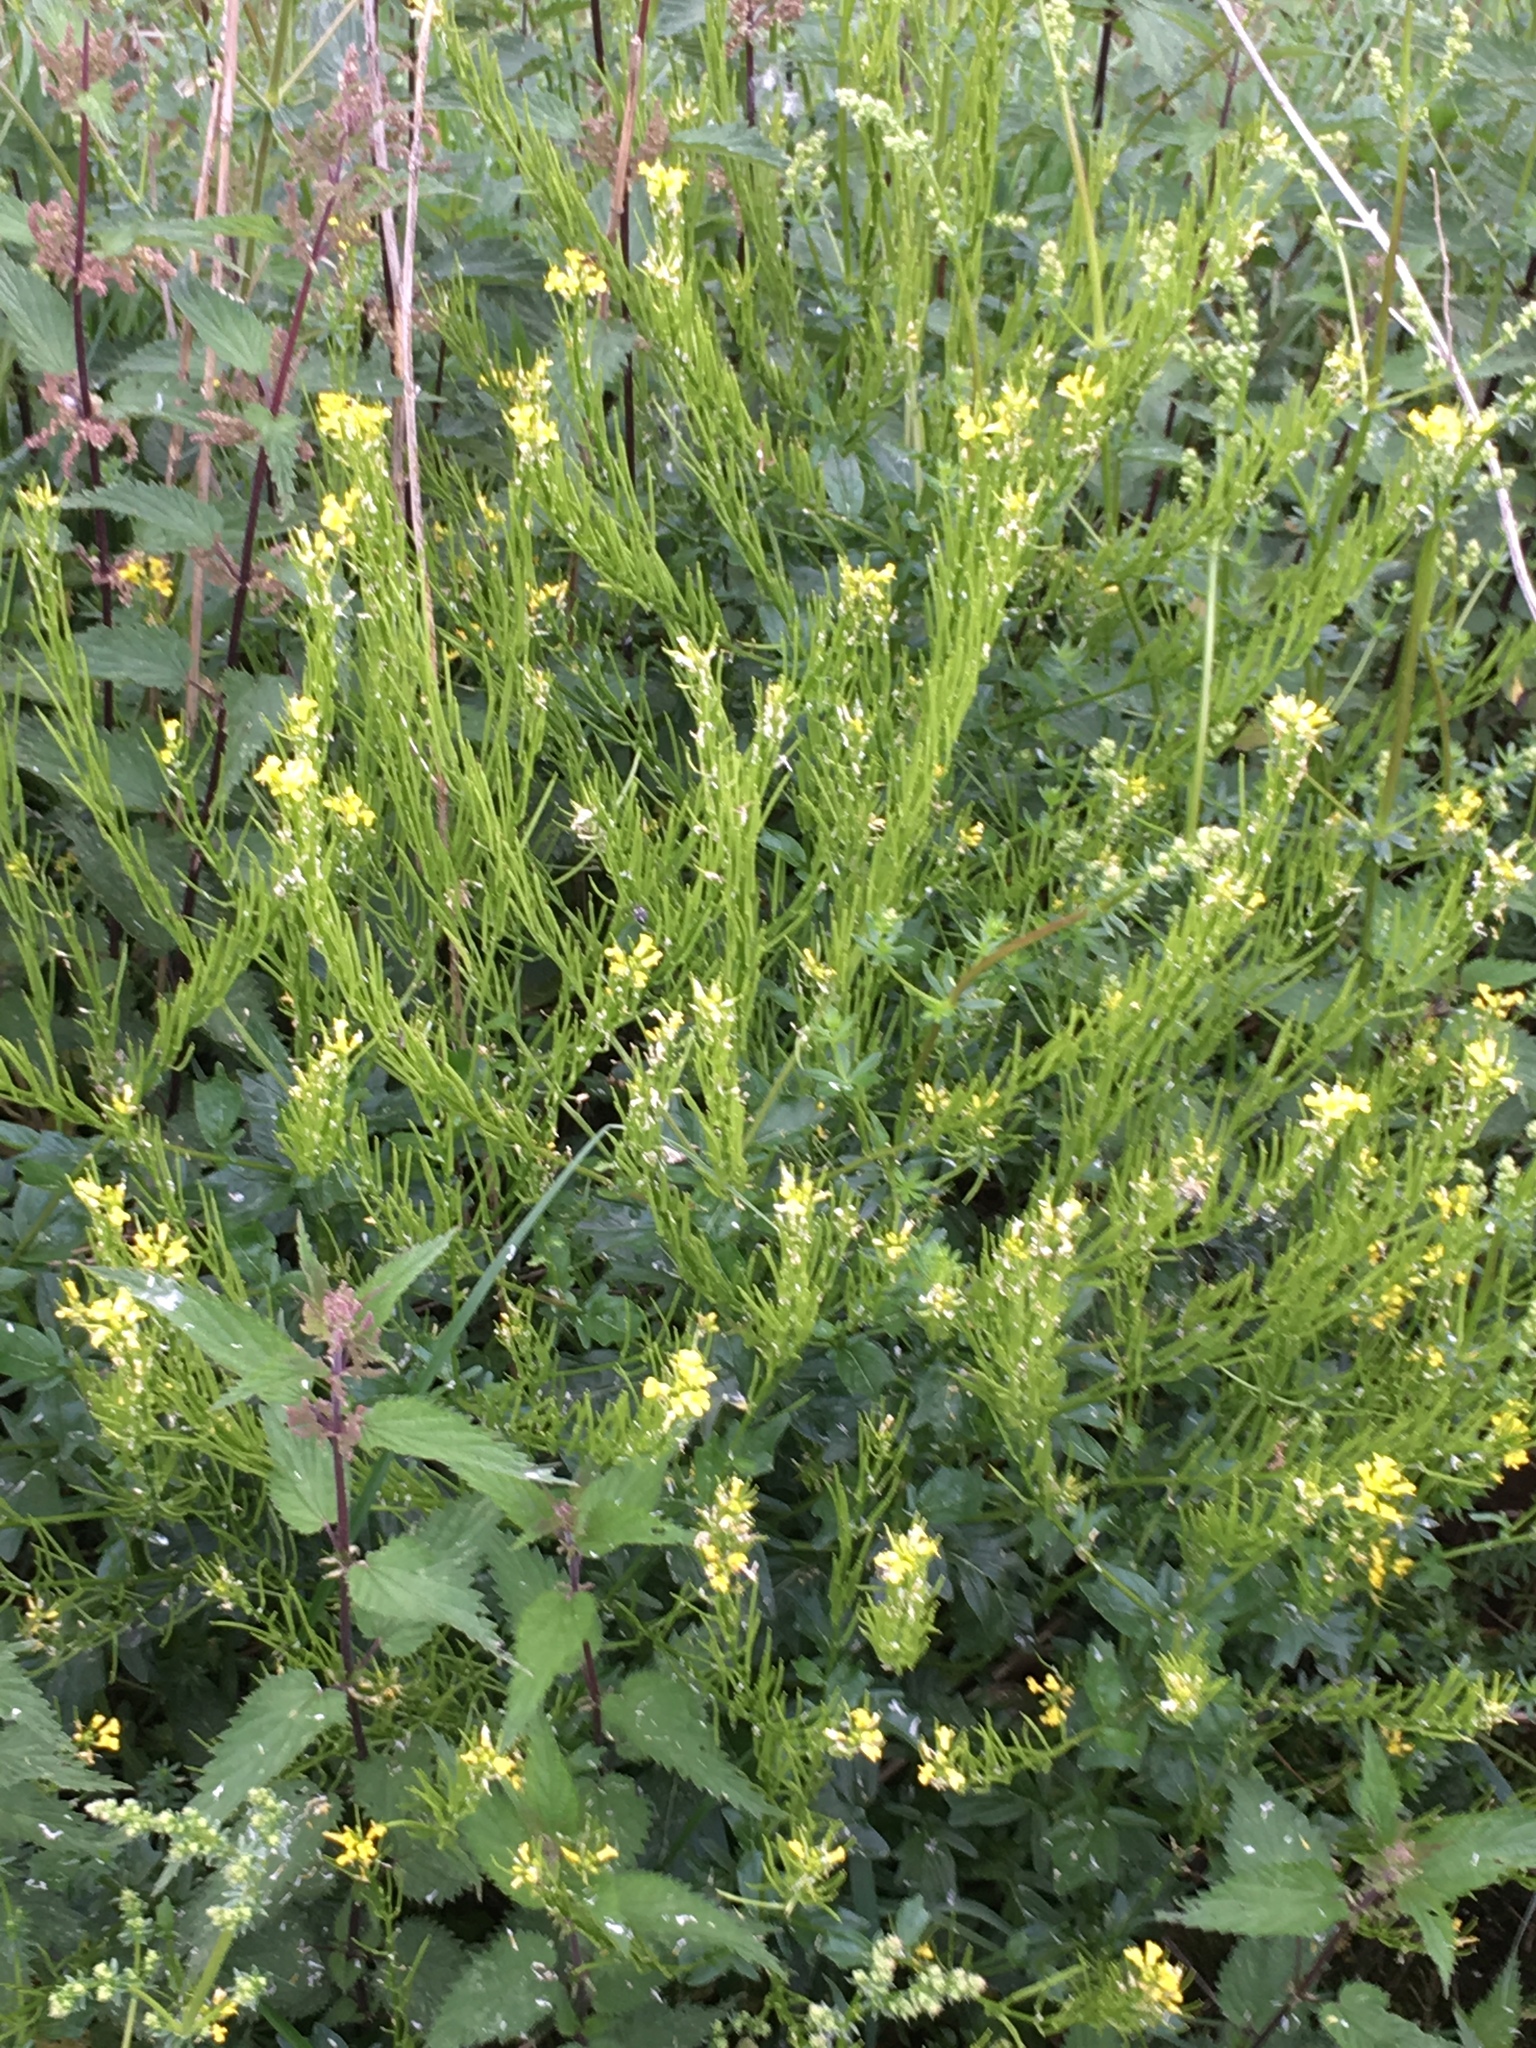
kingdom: Plantae
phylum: Tracheophyta
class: Magnoliopsida
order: Brassicales
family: Brassicaceae
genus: Barbarea
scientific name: Barbarea vulgaris
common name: Cressy-greens
